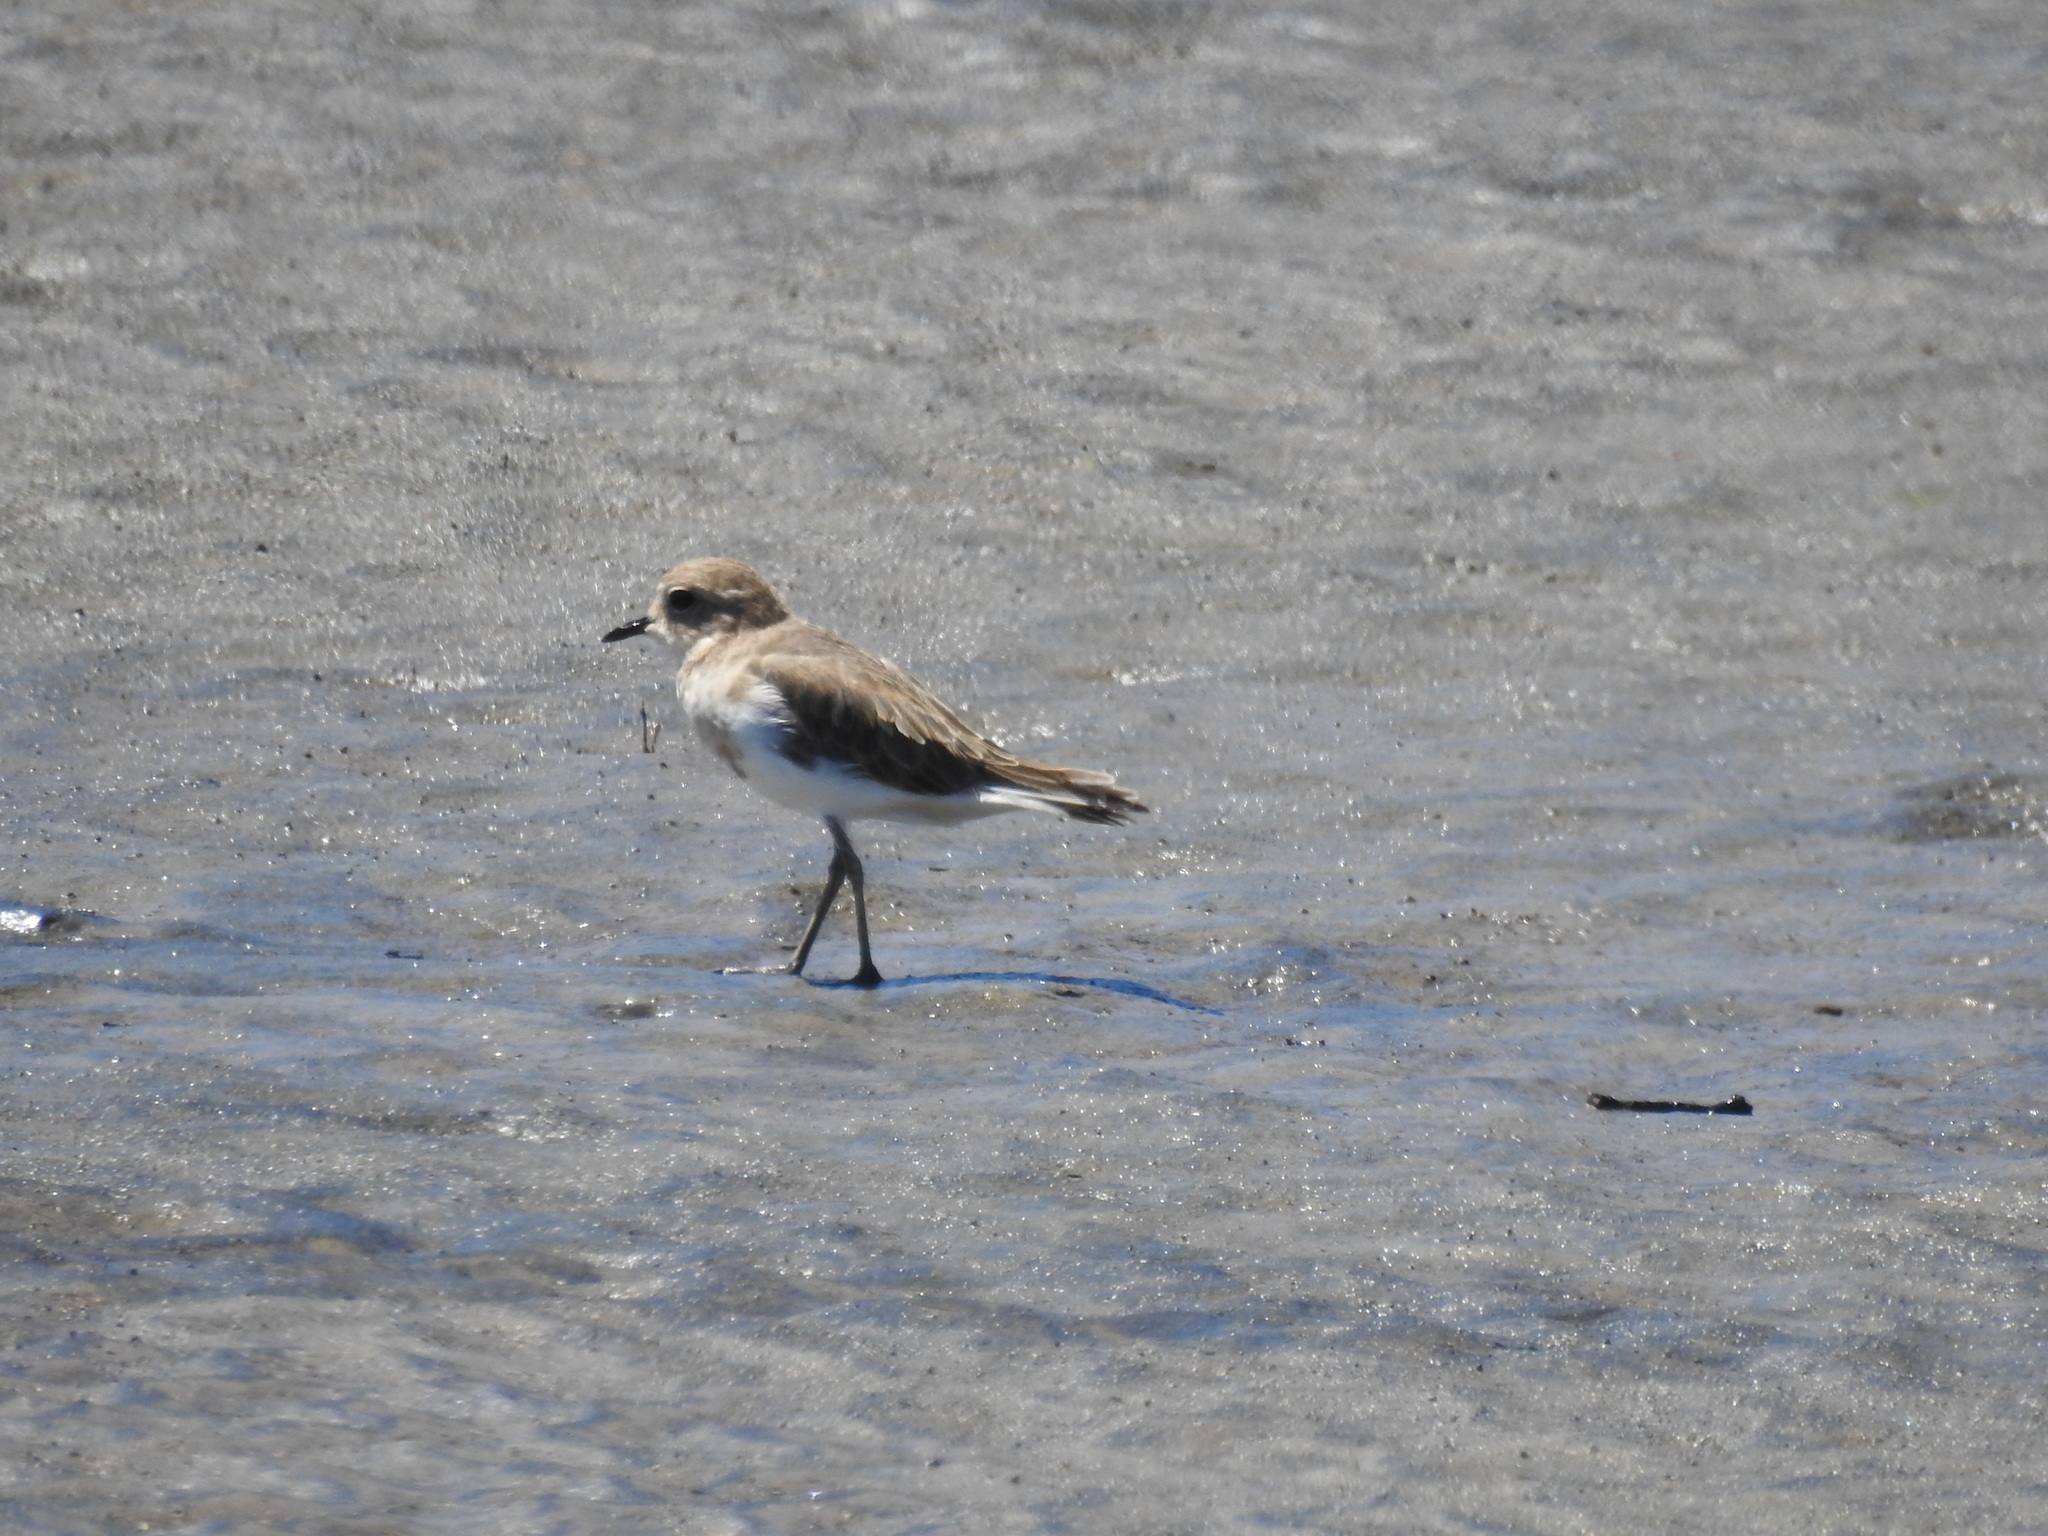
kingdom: Animalia
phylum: Chordata
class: Aves
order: Charadriiformes
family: Charadriidae
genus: Anarhynchus
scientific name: Anarhynchus
